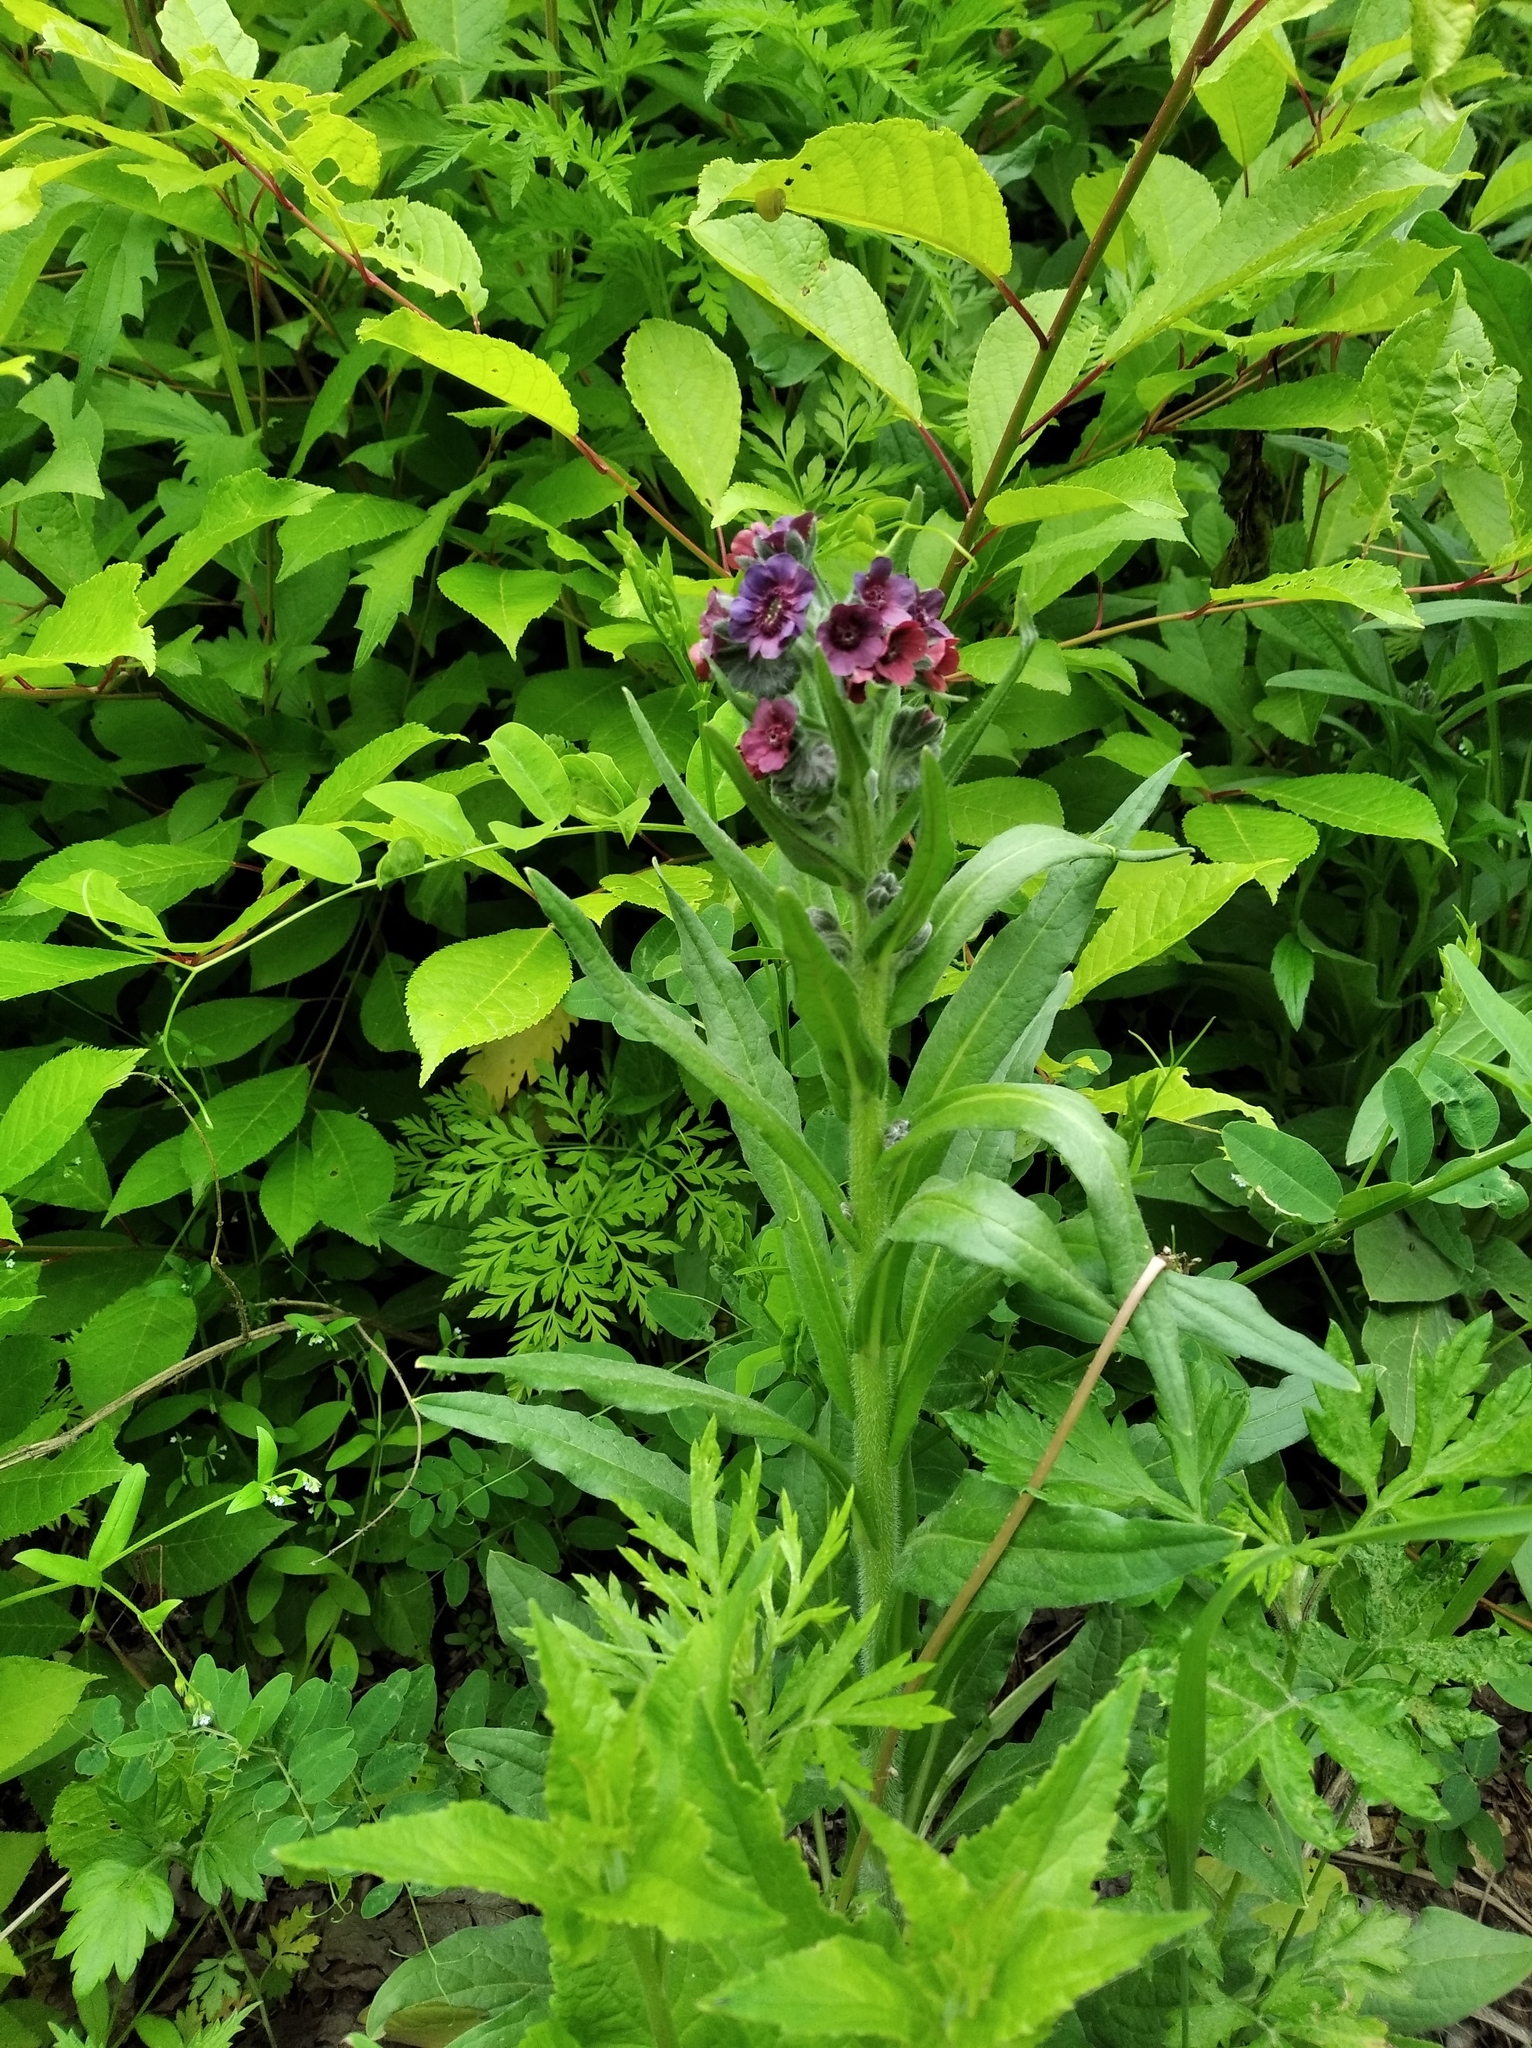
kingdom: Plantae
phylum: Tracheophyta
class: Magnoliopsida
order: Boraginales
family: Boraginaceae
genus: Cynoglossum
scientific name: Cynoglossum officinale
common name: Hound's-tongue
